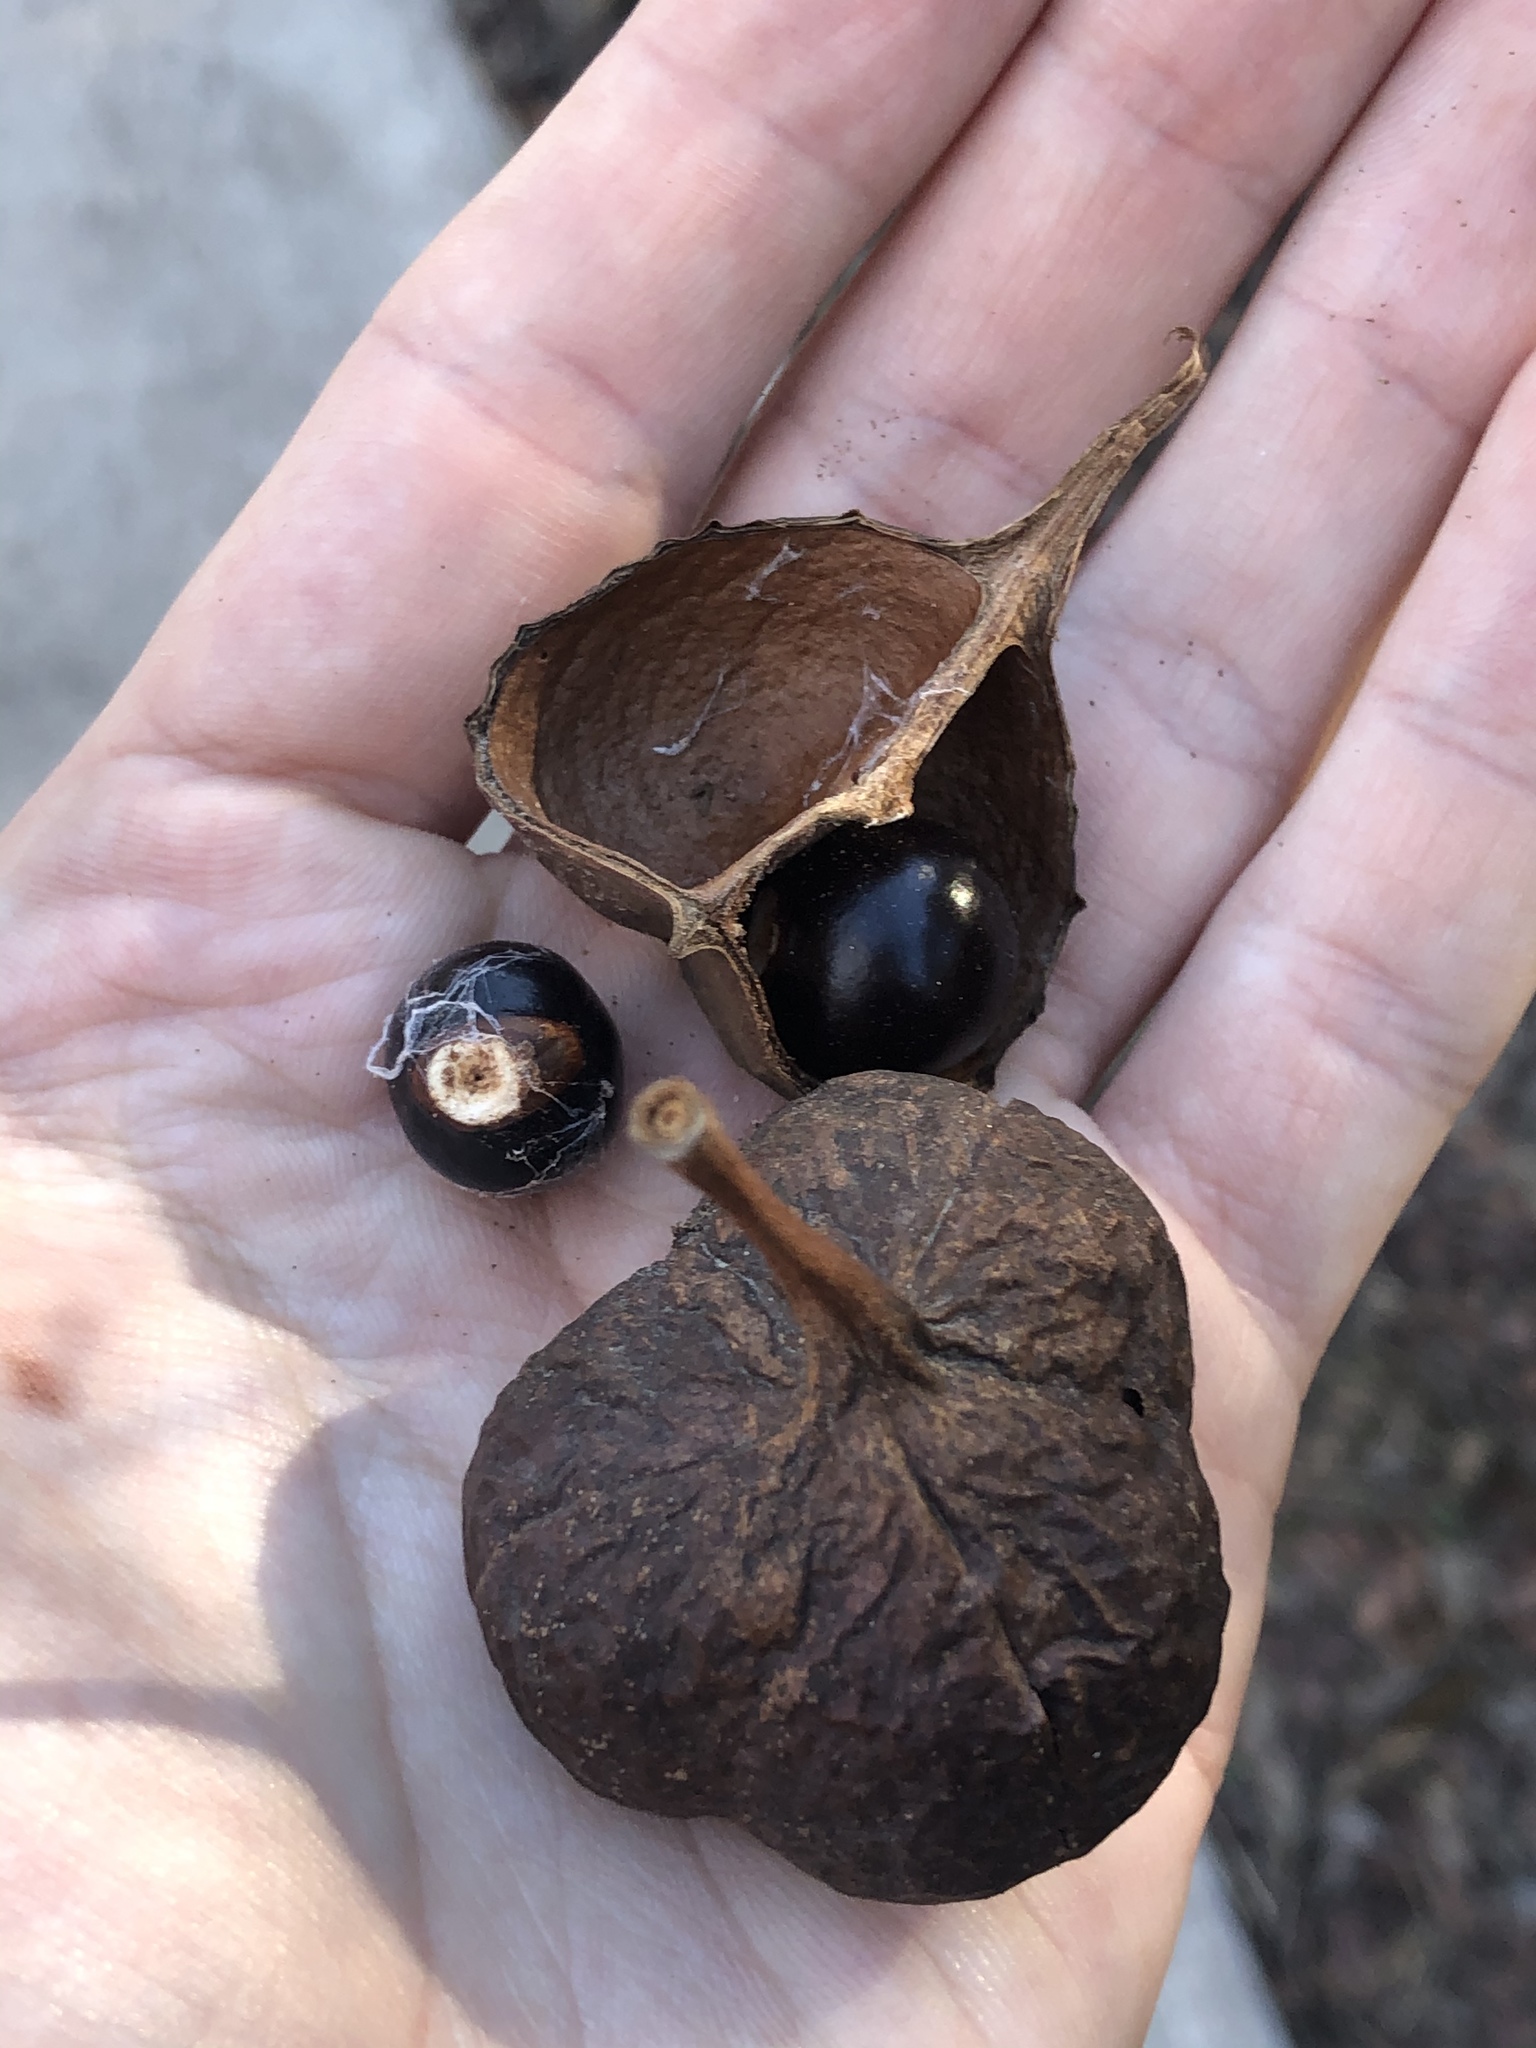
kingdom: Plantae
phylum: Tracheophyta
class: Magnoliopsida
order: Sapindales
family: Sapindaceae
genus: Ungnadia
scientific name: Ungnadia speciosa
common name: Texas-buckeye
